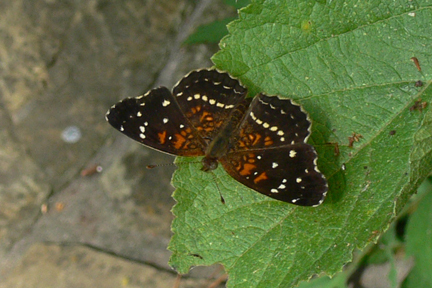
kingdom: Animalia
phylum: Arthropoda
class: Insecta
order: Lepidoptera
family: Nymphalidae
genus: Anthanassa
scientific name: Anthanassa texana
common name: Texan crescent
